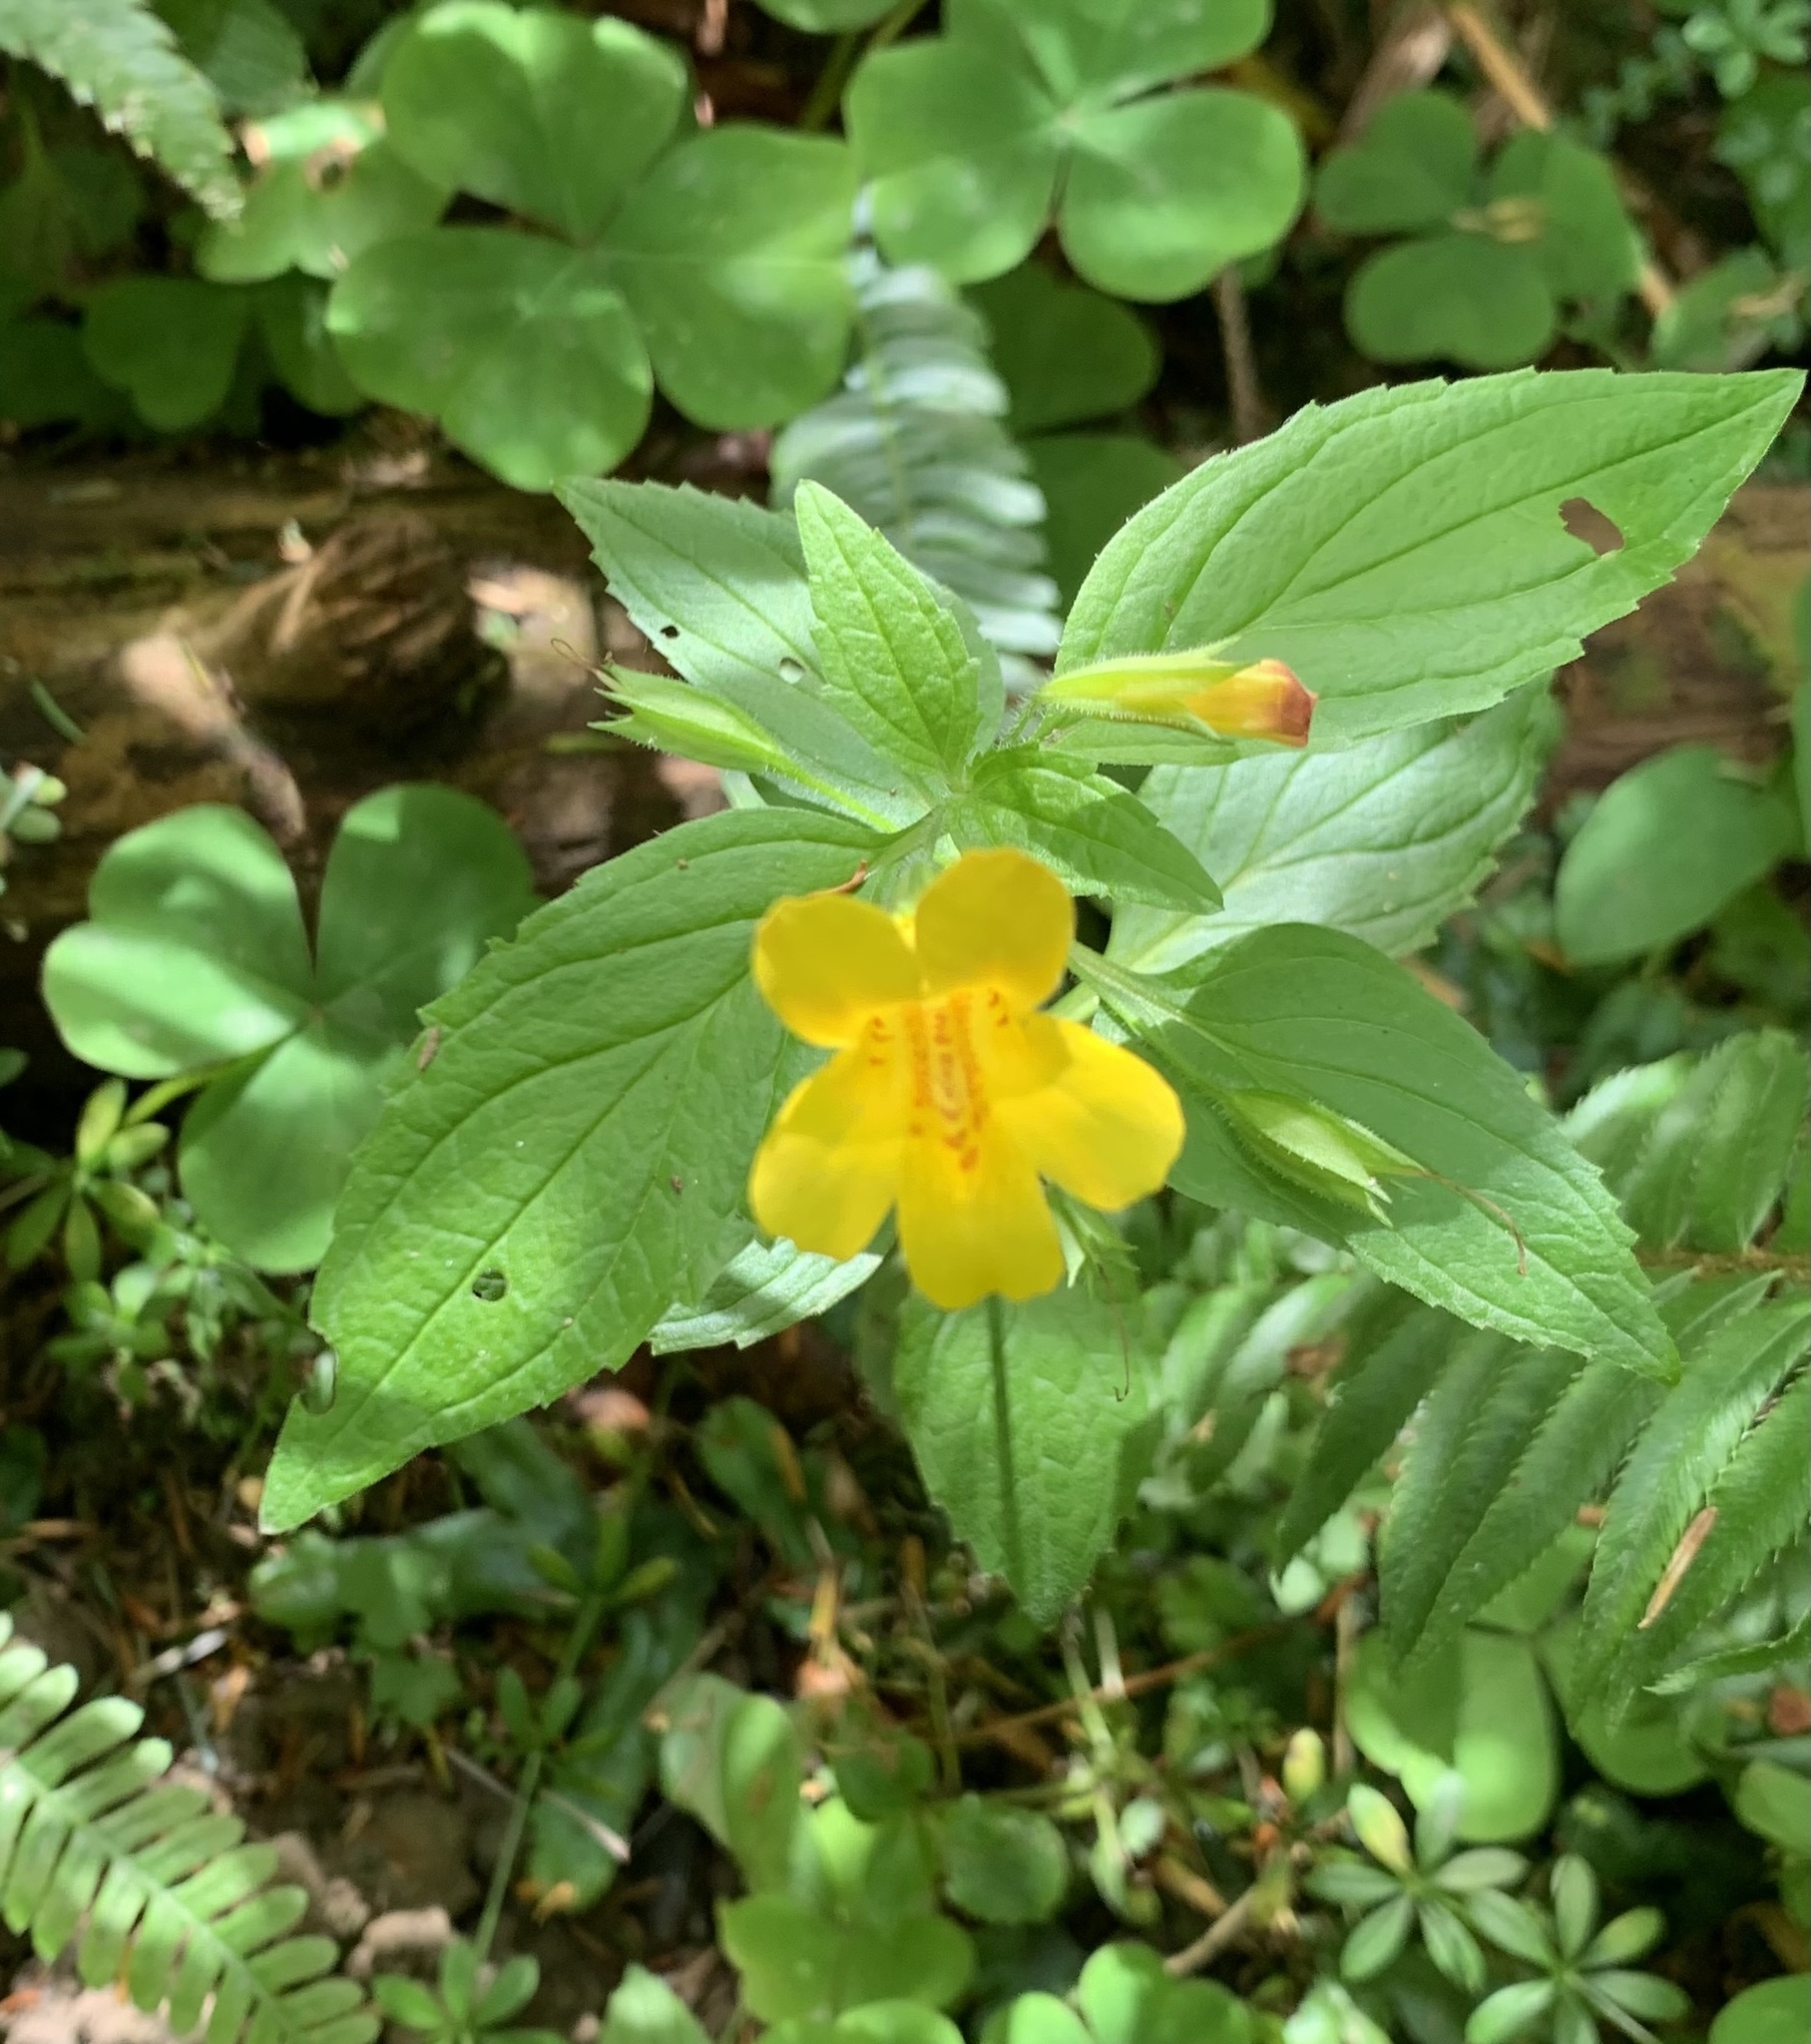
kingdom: Plantae
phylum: Tracheophyta
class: Magnoliopsida
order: Lamiales
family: Phrymaceae
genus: Erythranthe
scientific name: Erythranthe dentata
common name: Coastal monkeyflower
